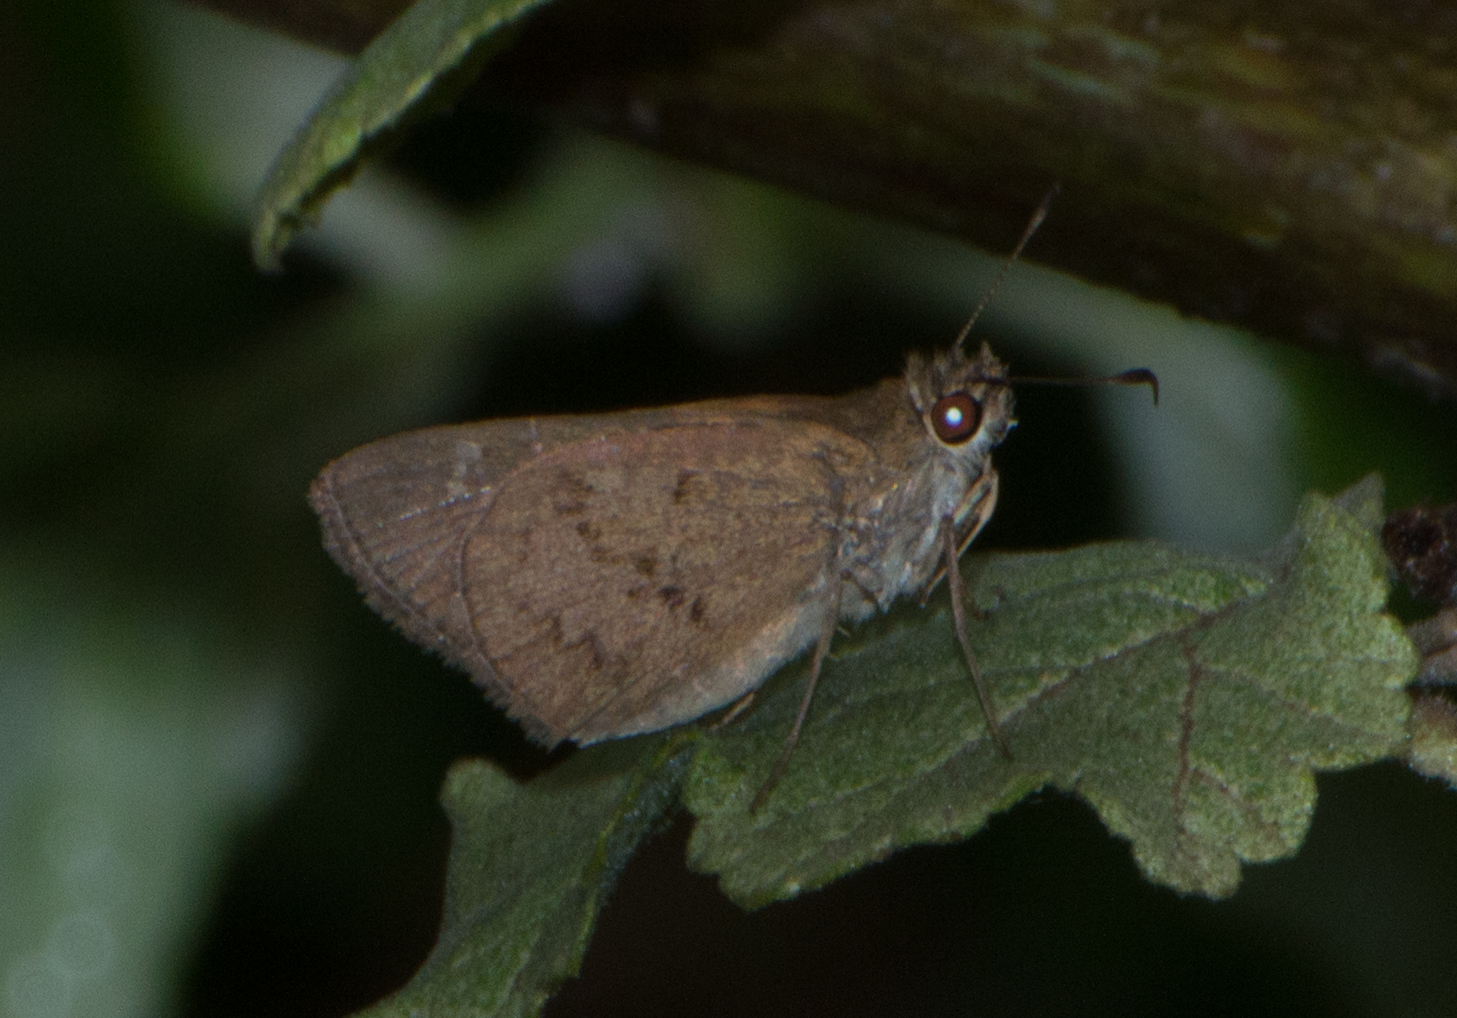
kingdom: Animalia
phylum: Arthropoda
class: Insecta
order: Lepidoptera
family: Hesperiidae
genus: Cymaenes
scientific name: Cymaenes gisca
